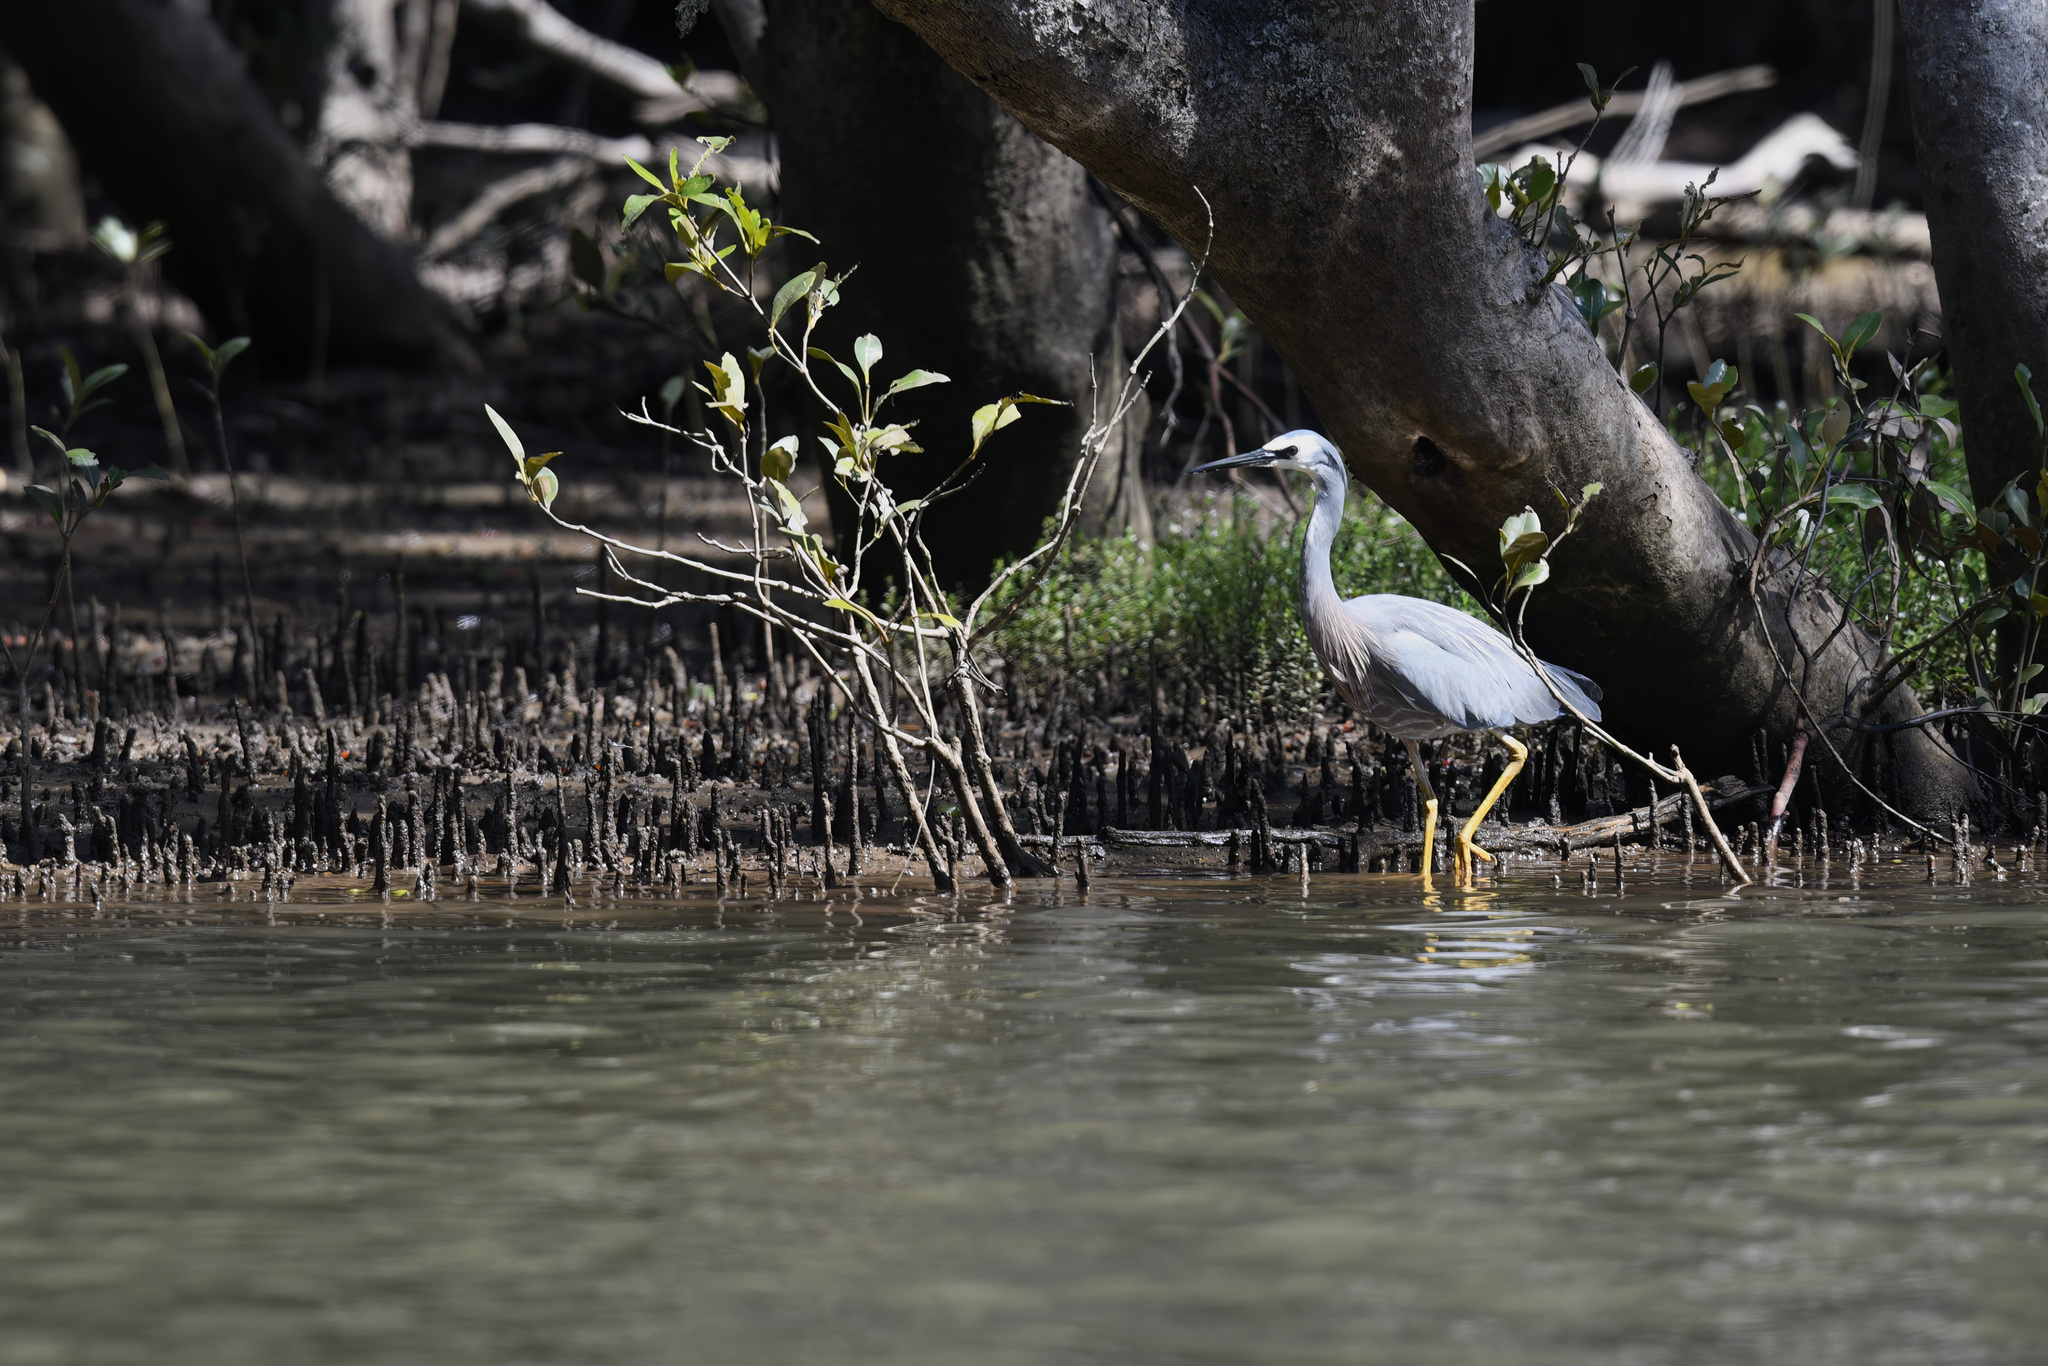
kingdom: Animalia
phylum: Chordata
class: Aves
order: Pelecaniformes
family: Ardeidae
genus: Egretta
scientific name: Egretta novaehollandiae
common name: White-faced heron
